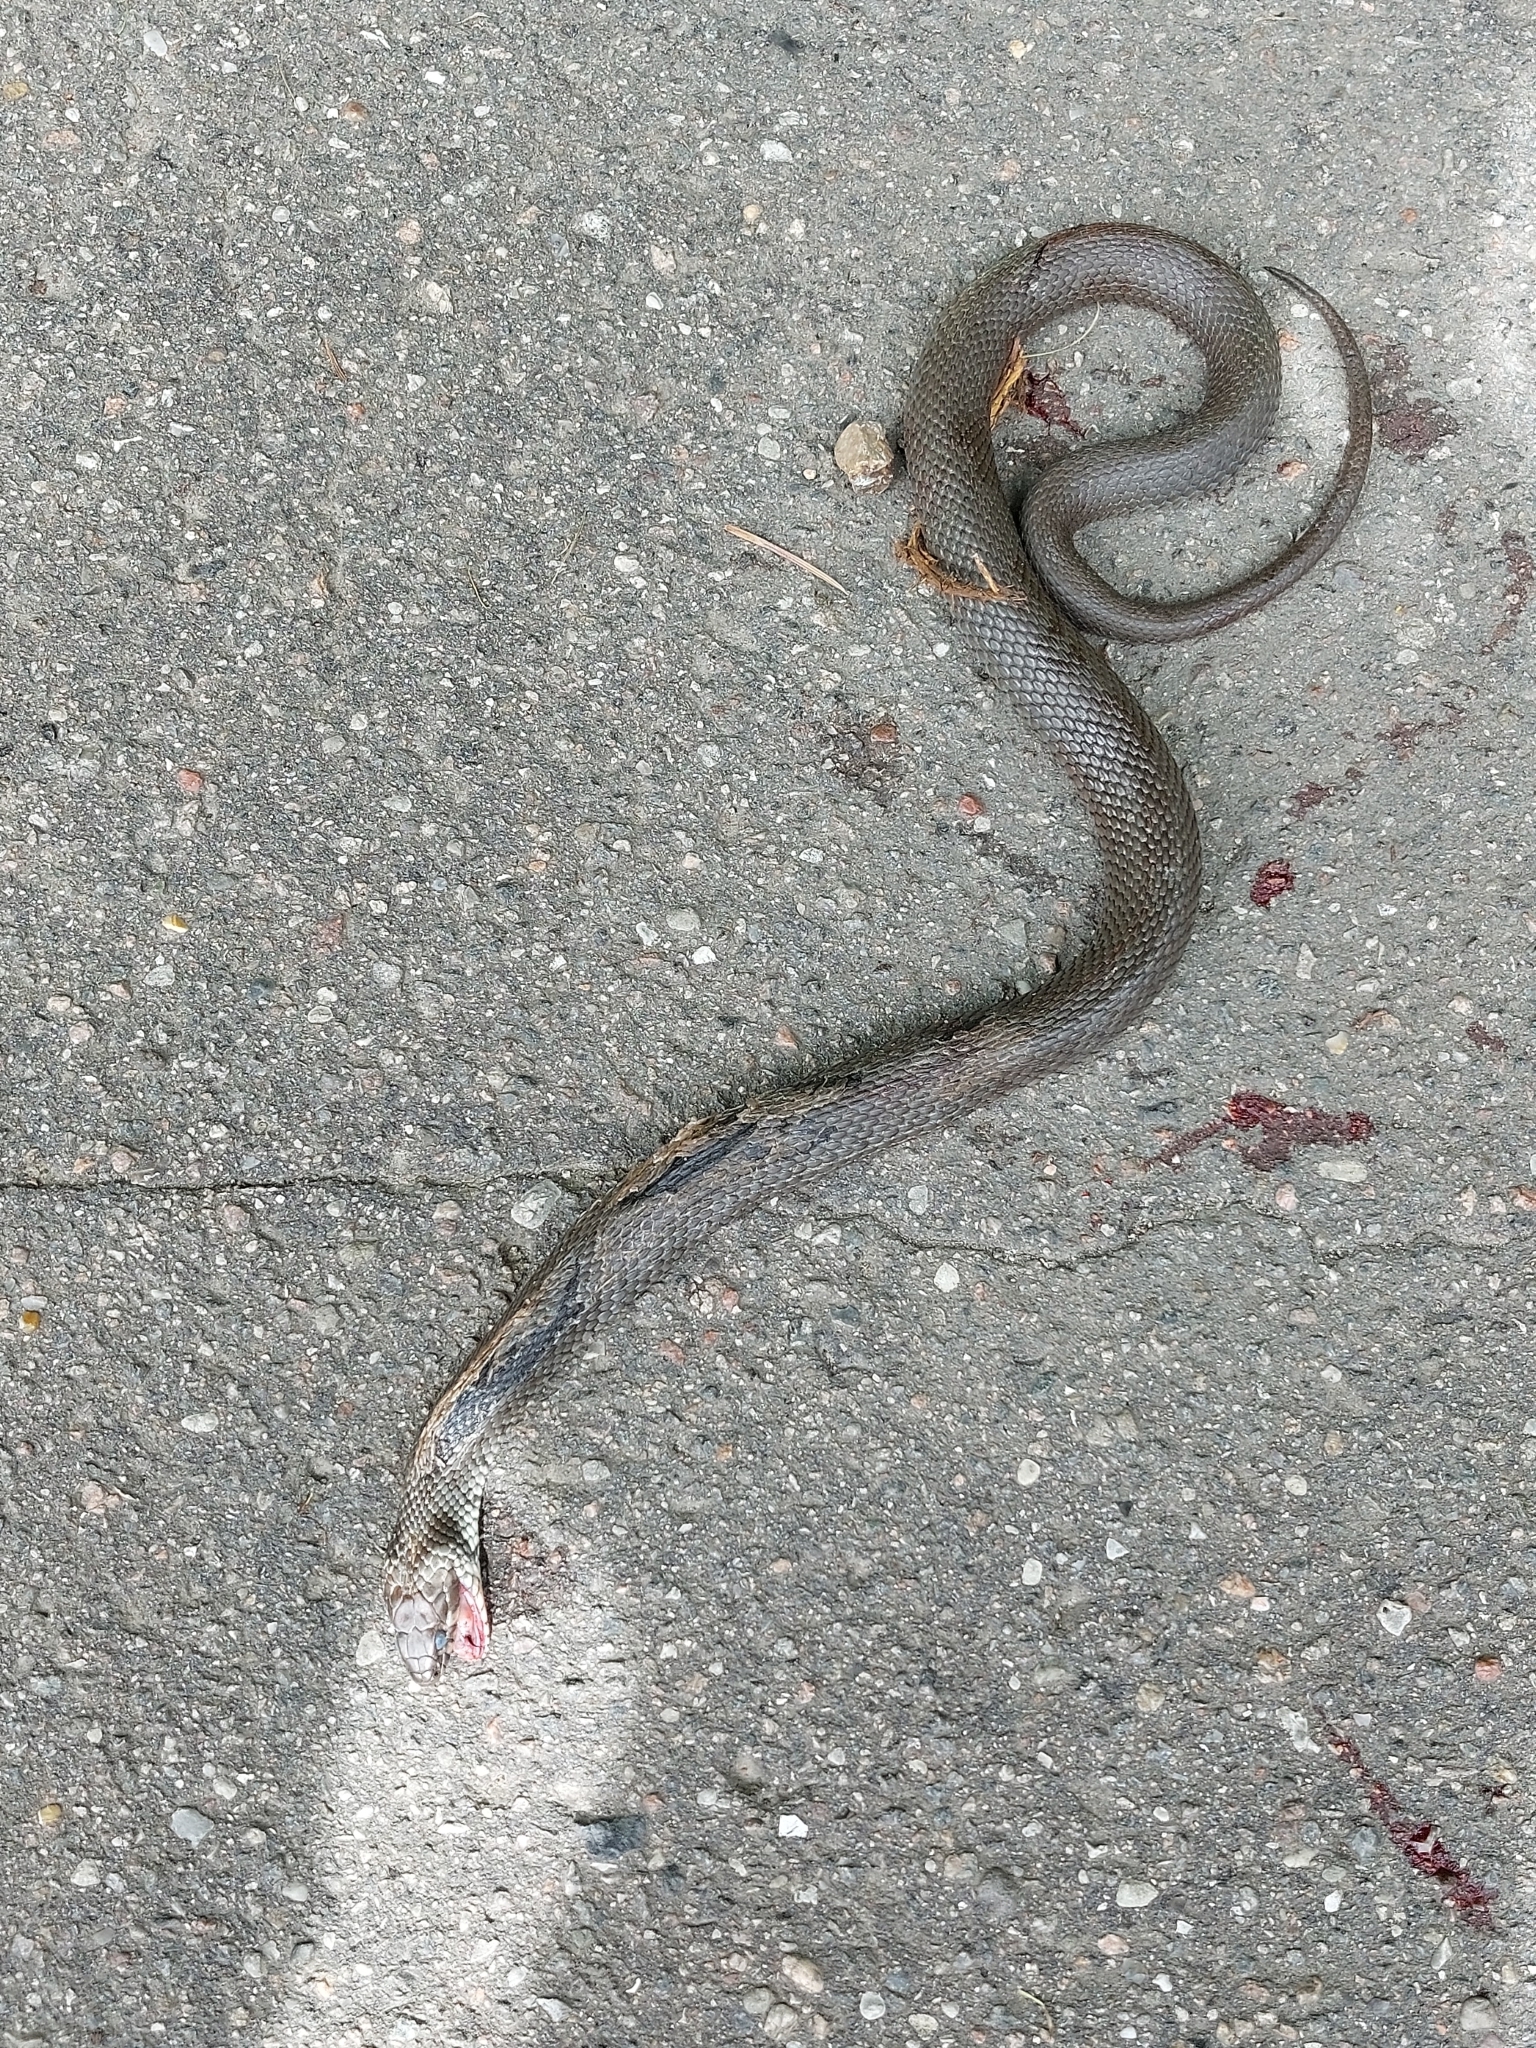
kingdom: Animalia
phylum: Chordata
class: Squamata
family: Colubridae
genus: Natrix
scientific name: Natrix natrix
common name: Grass snake
